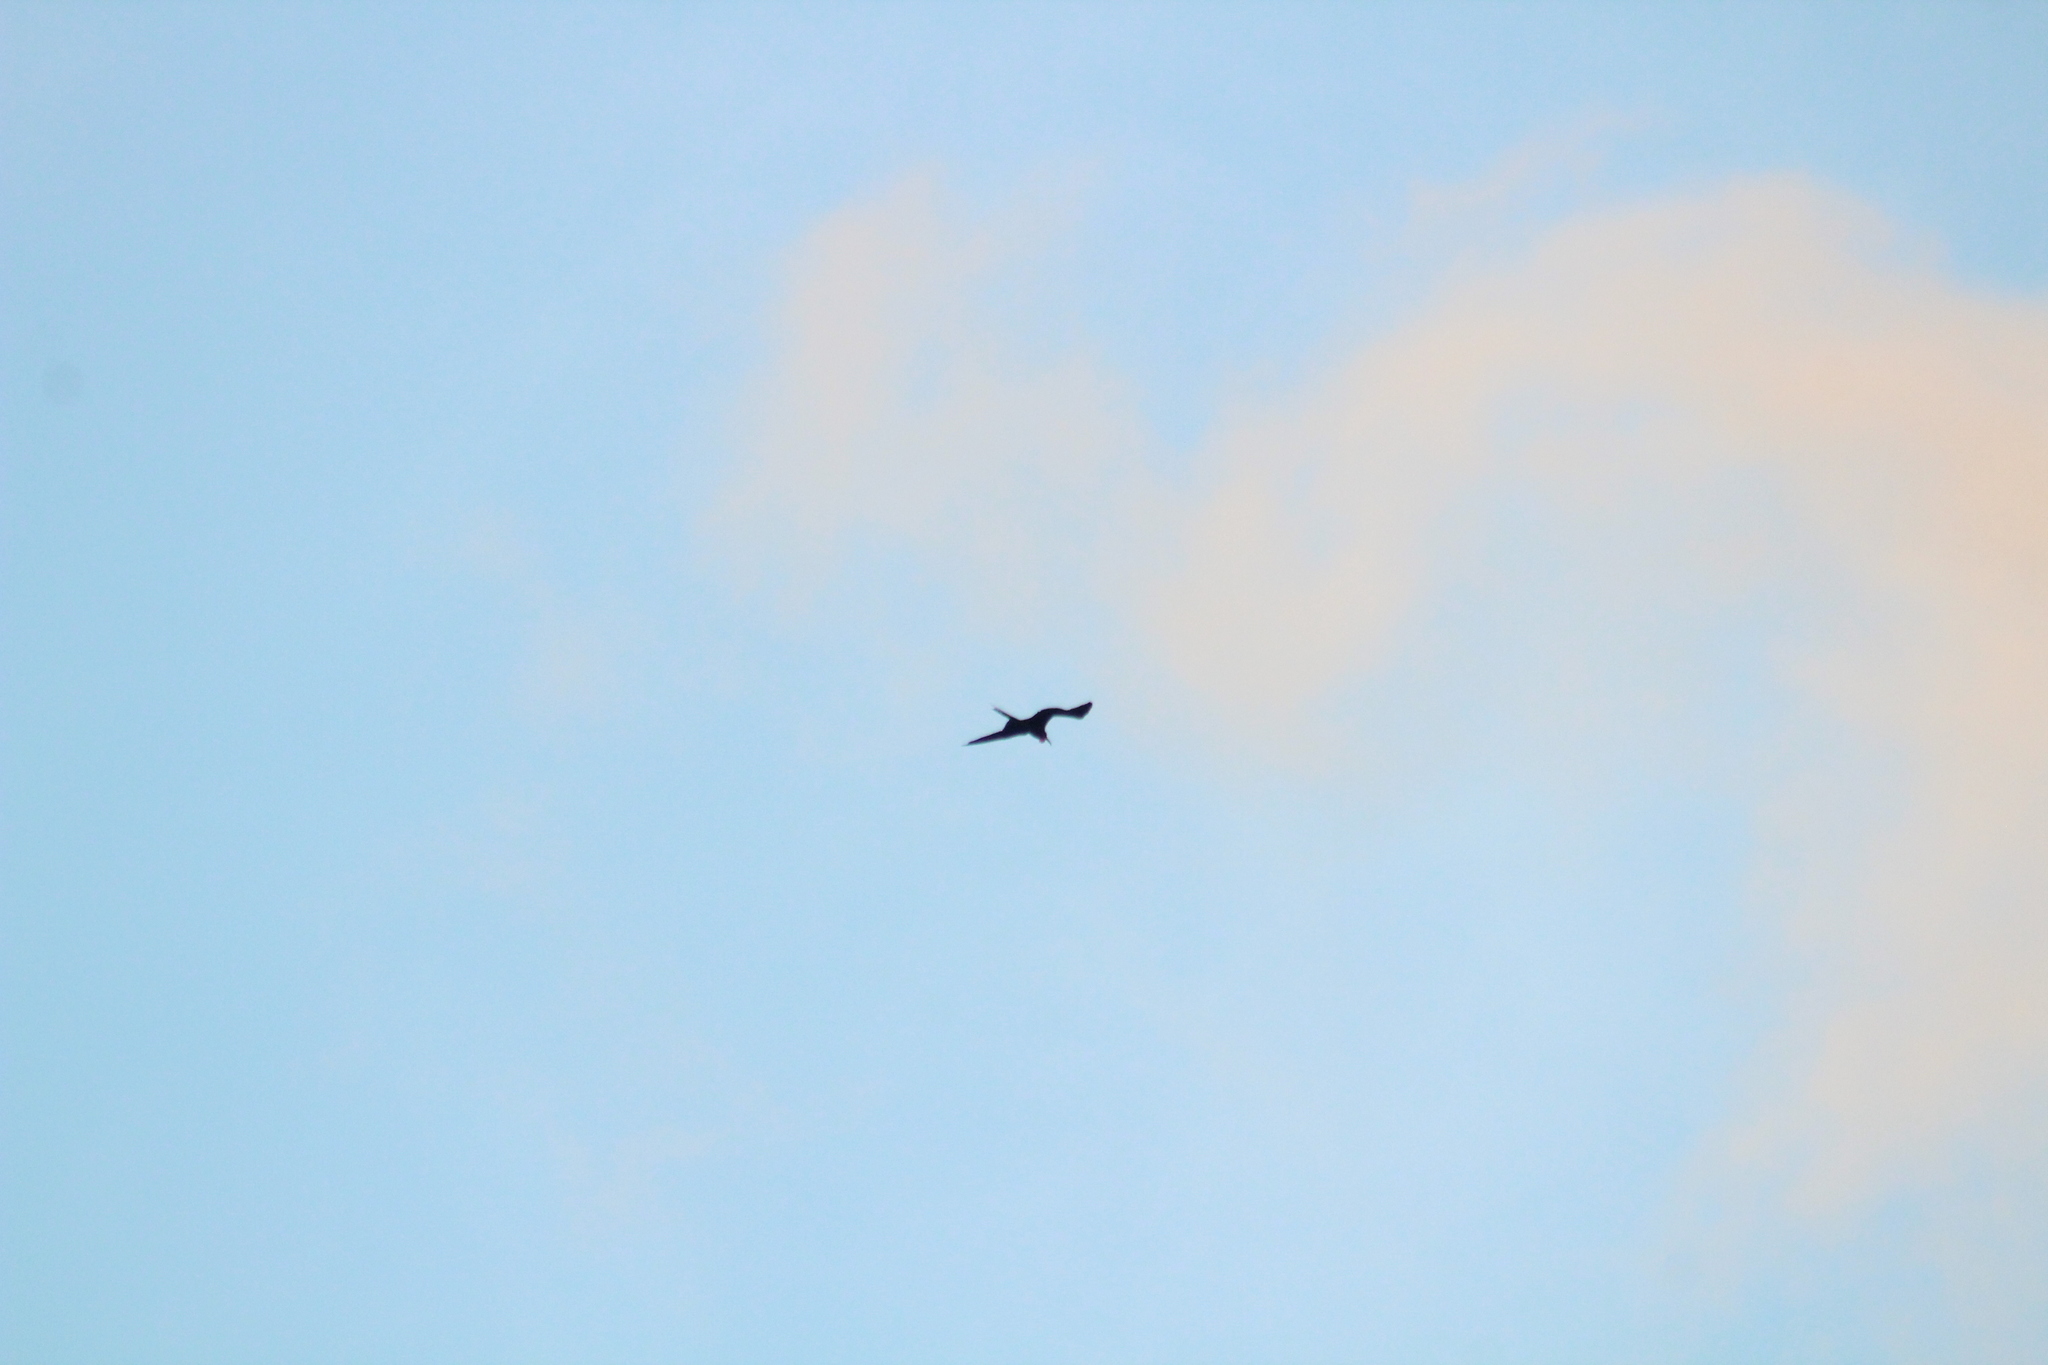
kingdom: Animalia
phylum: Chordata
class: Aves
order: Suliformes
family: Fregatidae
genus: Fregata
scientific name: Fregata magnificens
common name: Magnificent frigatebird
